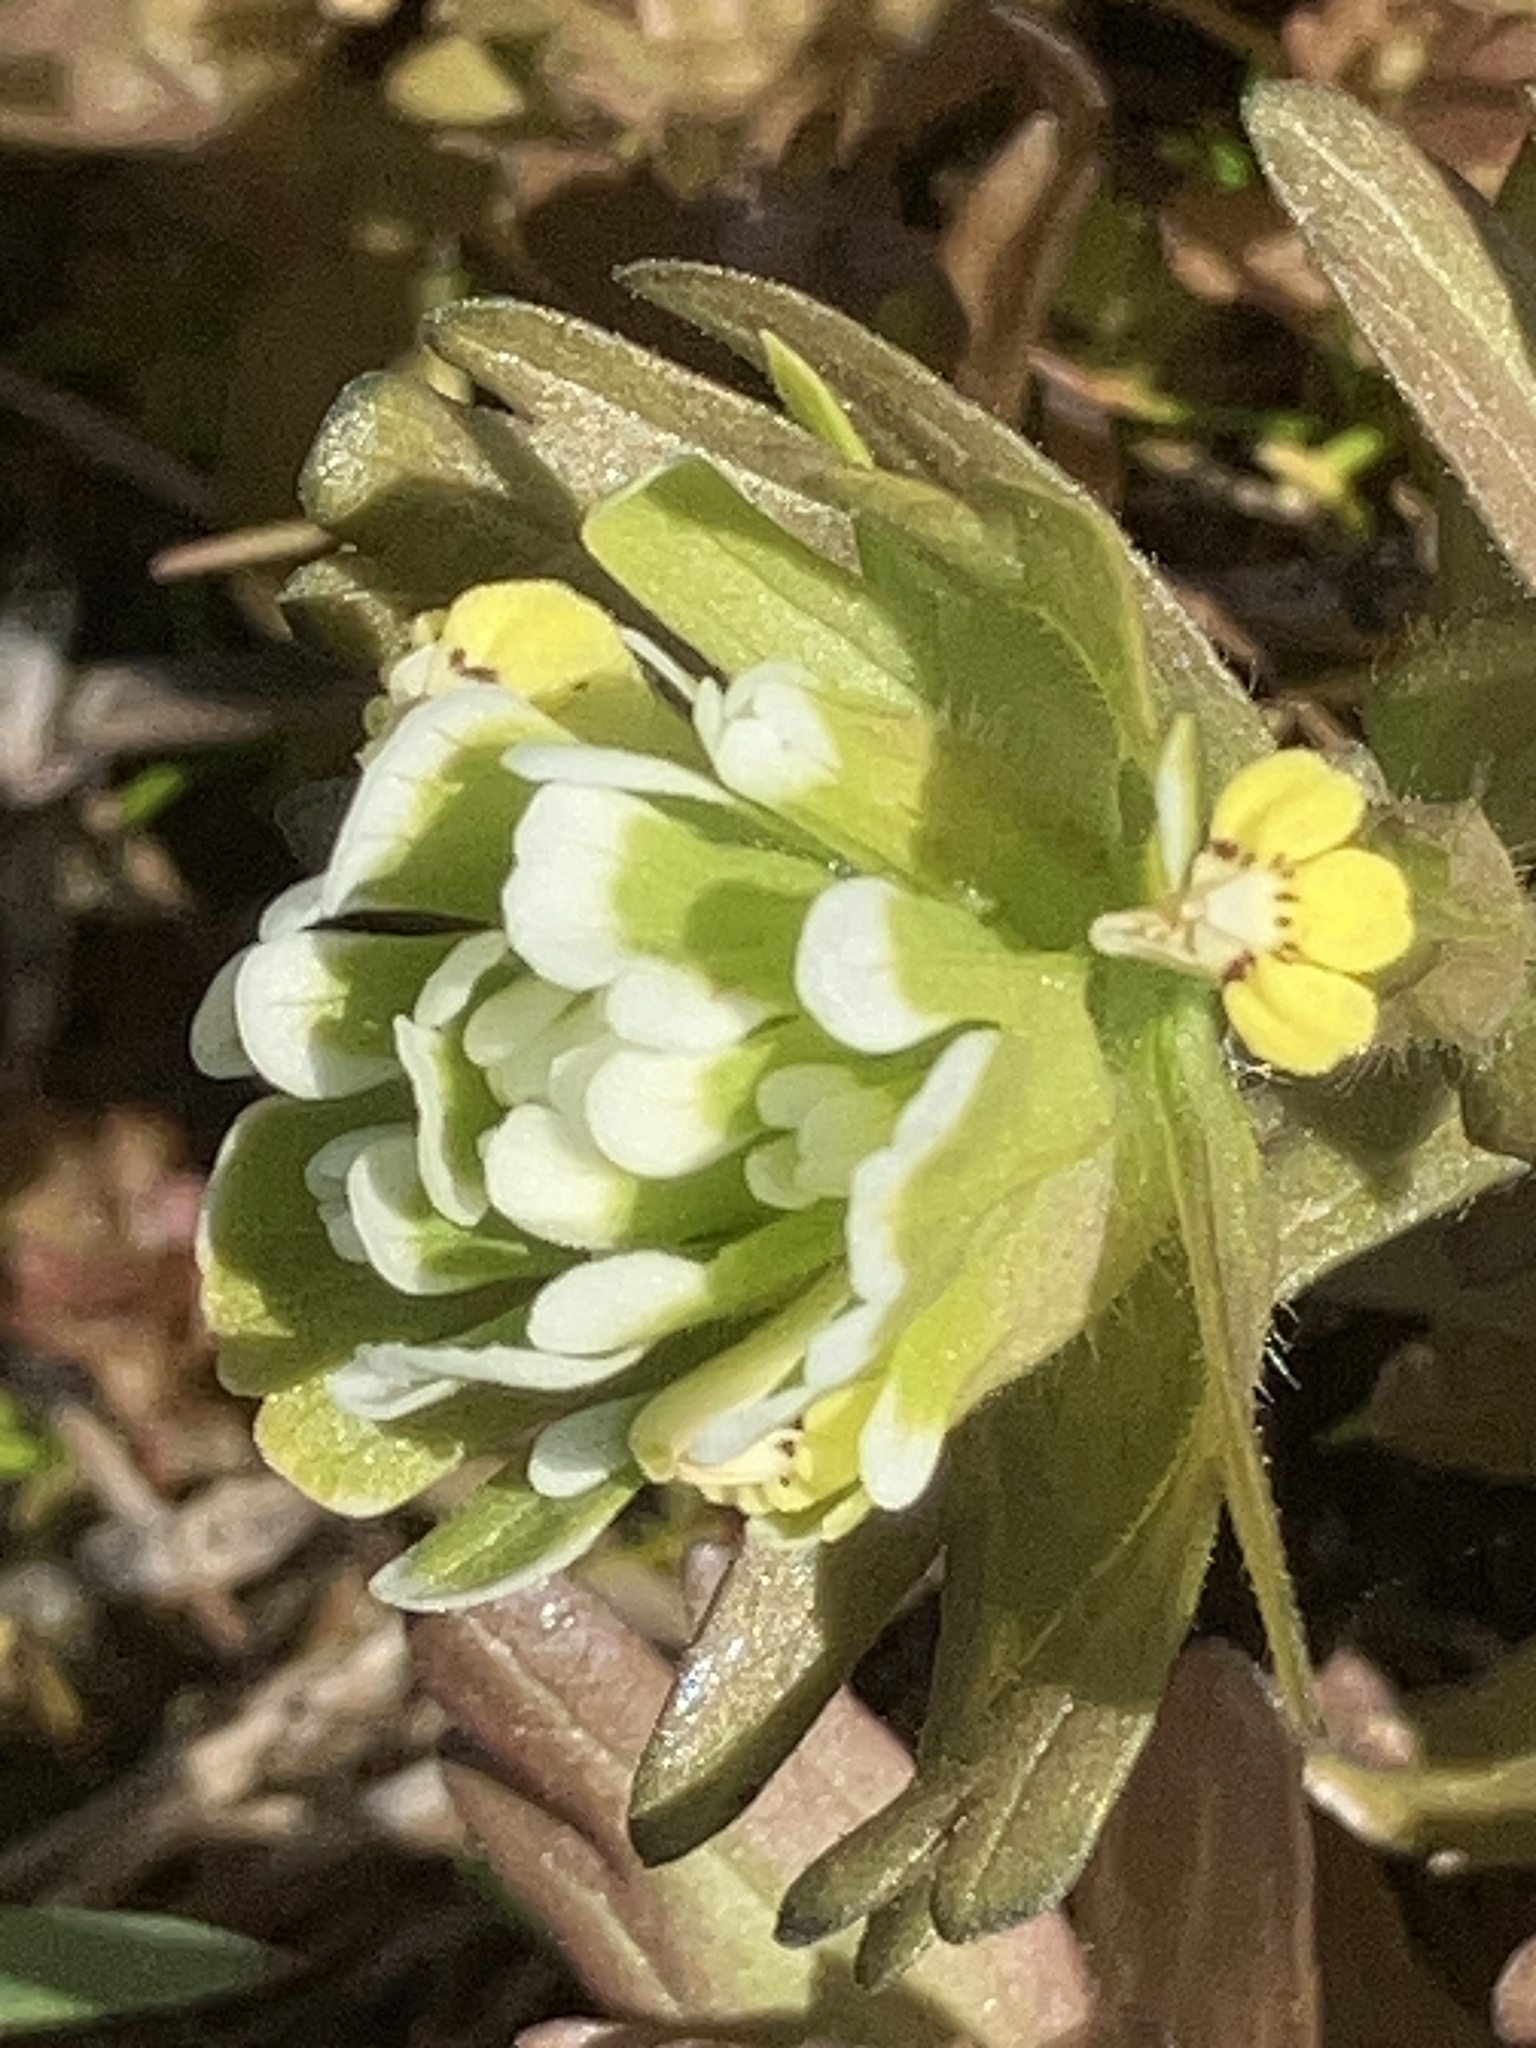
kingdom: Plantae
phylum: Tracheophyta
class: Magnoliopsida
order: Lamiales
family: Orobanchaceae
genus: Castilleja
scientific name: Castilleja ambigua
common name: Johnny-nip
